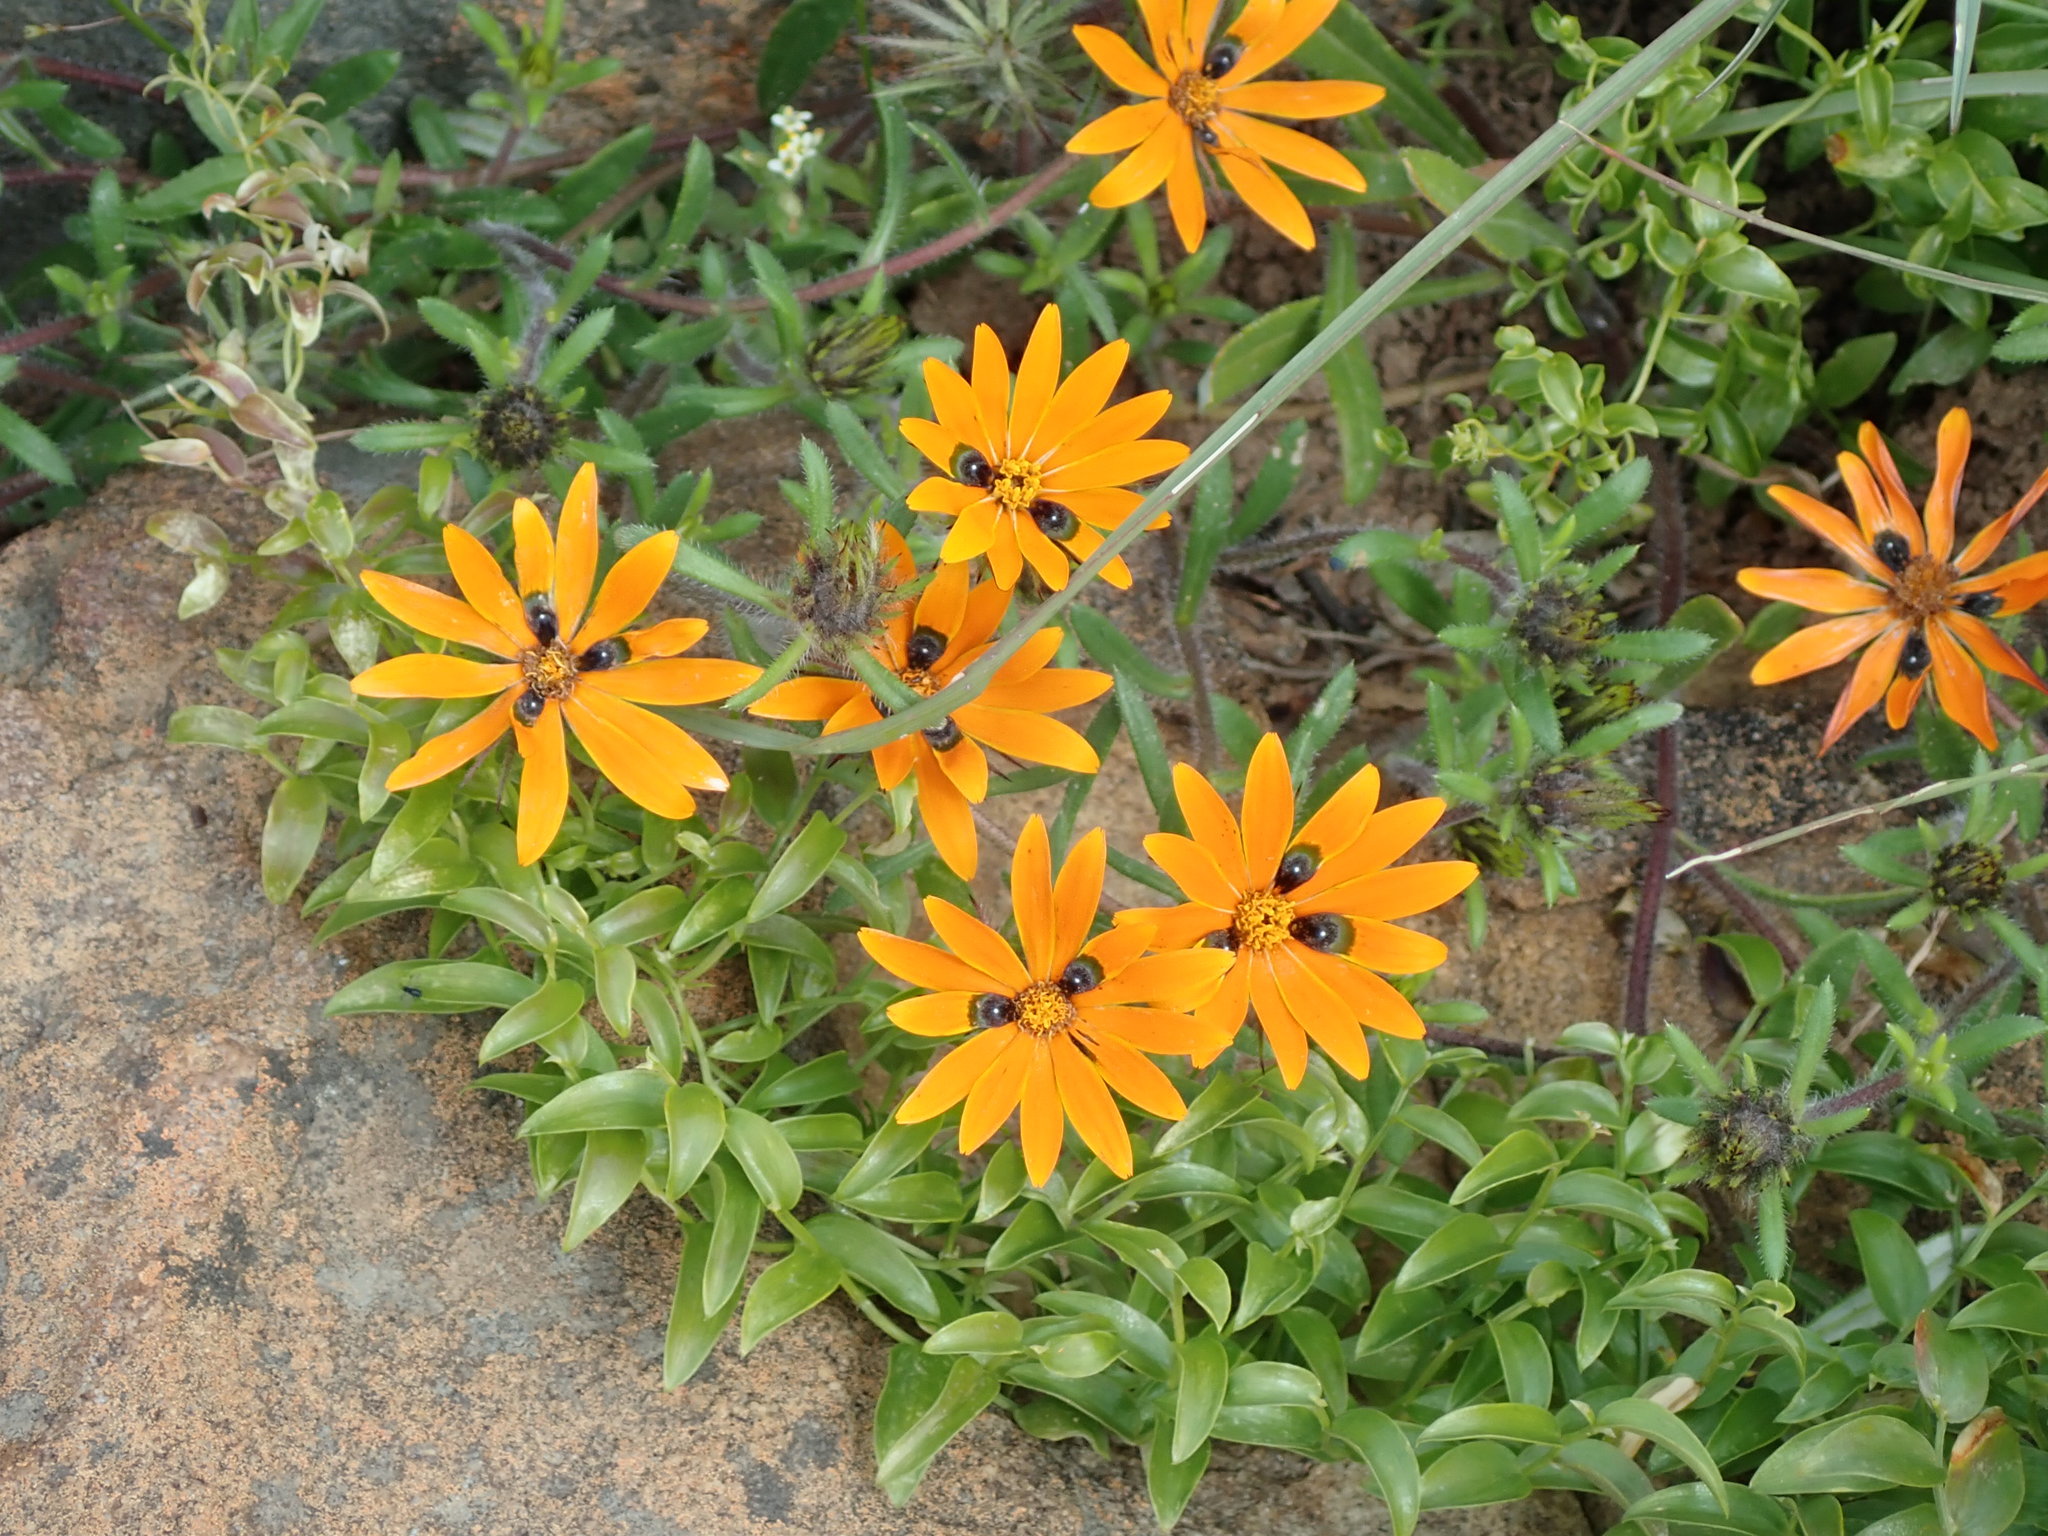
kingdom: Plantae
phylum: Tracheophyta
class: Magnoliopsida
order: Asterales
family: Asteraceae
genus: Gorteria
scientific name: Gorteria diffusa
